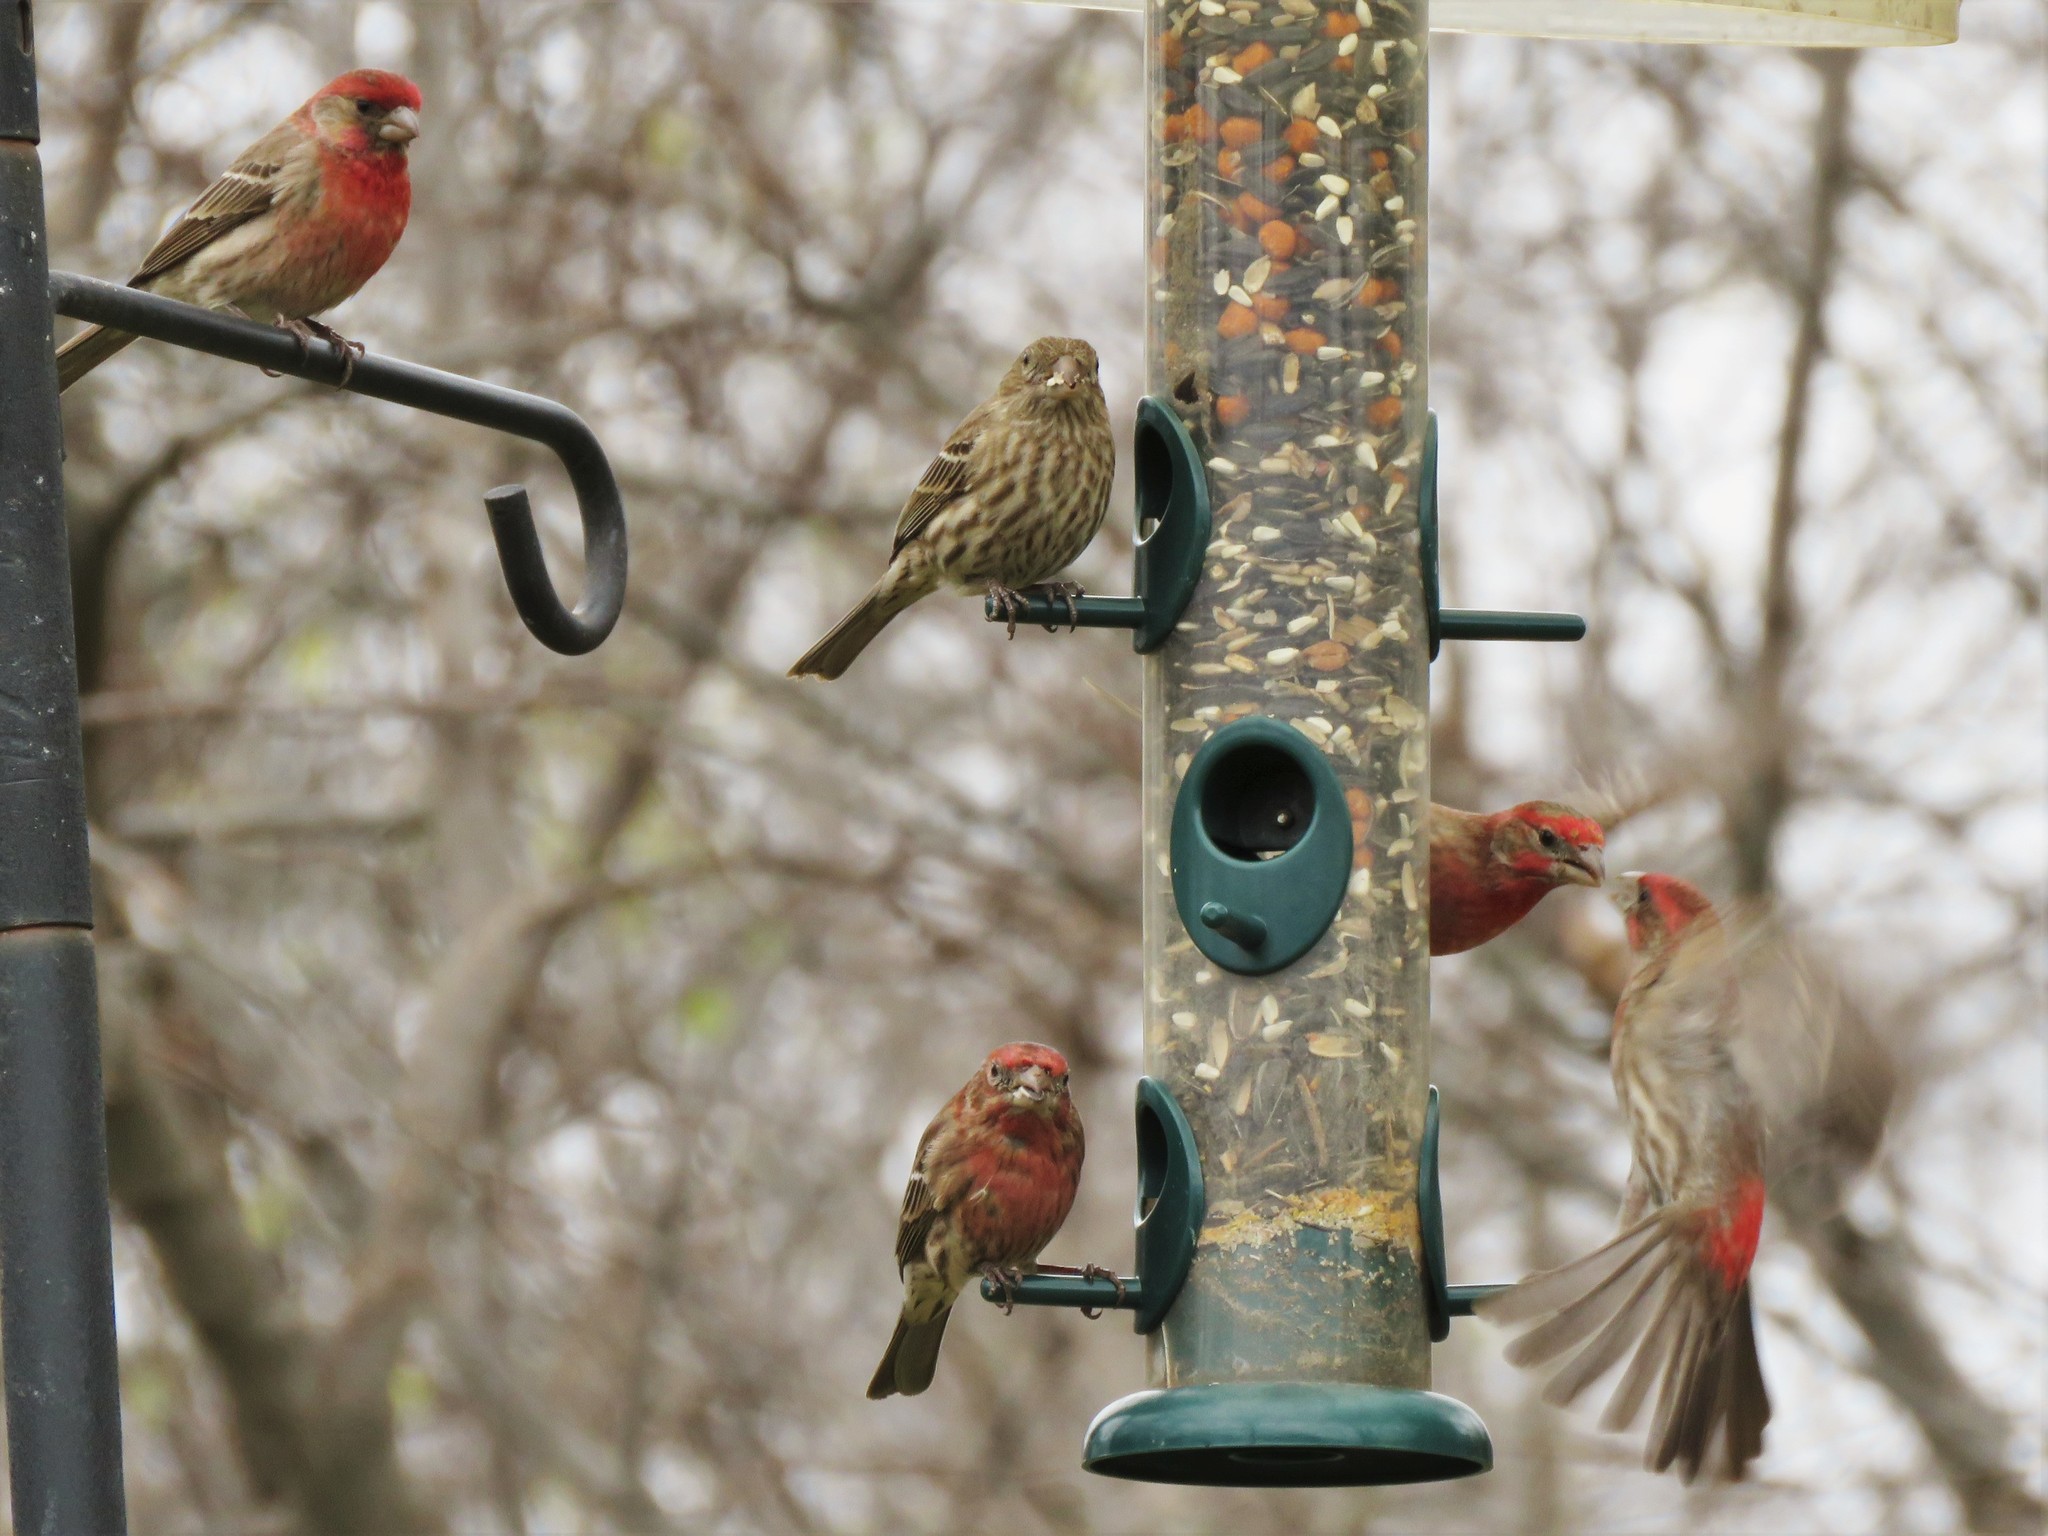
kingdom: Animalia
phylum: Chordata
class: Aves
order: Passeriformes
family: Fringillidae
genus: Haemorhous
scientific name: Haemorhous mexicanus
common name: House finch
